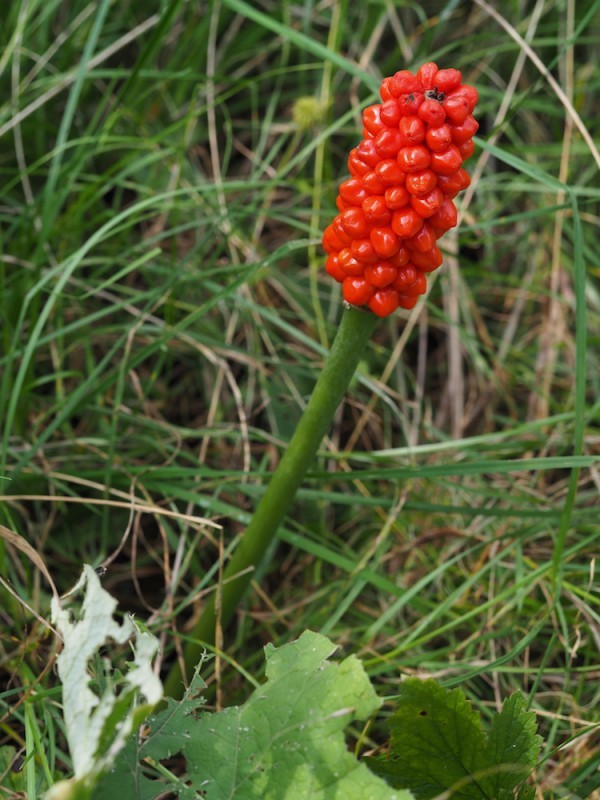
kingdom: Plantae
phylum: Tracheophyta
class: Liliopsida
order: Alismatales
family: Araceae
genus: Arum
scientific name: Arum cylindraceum
